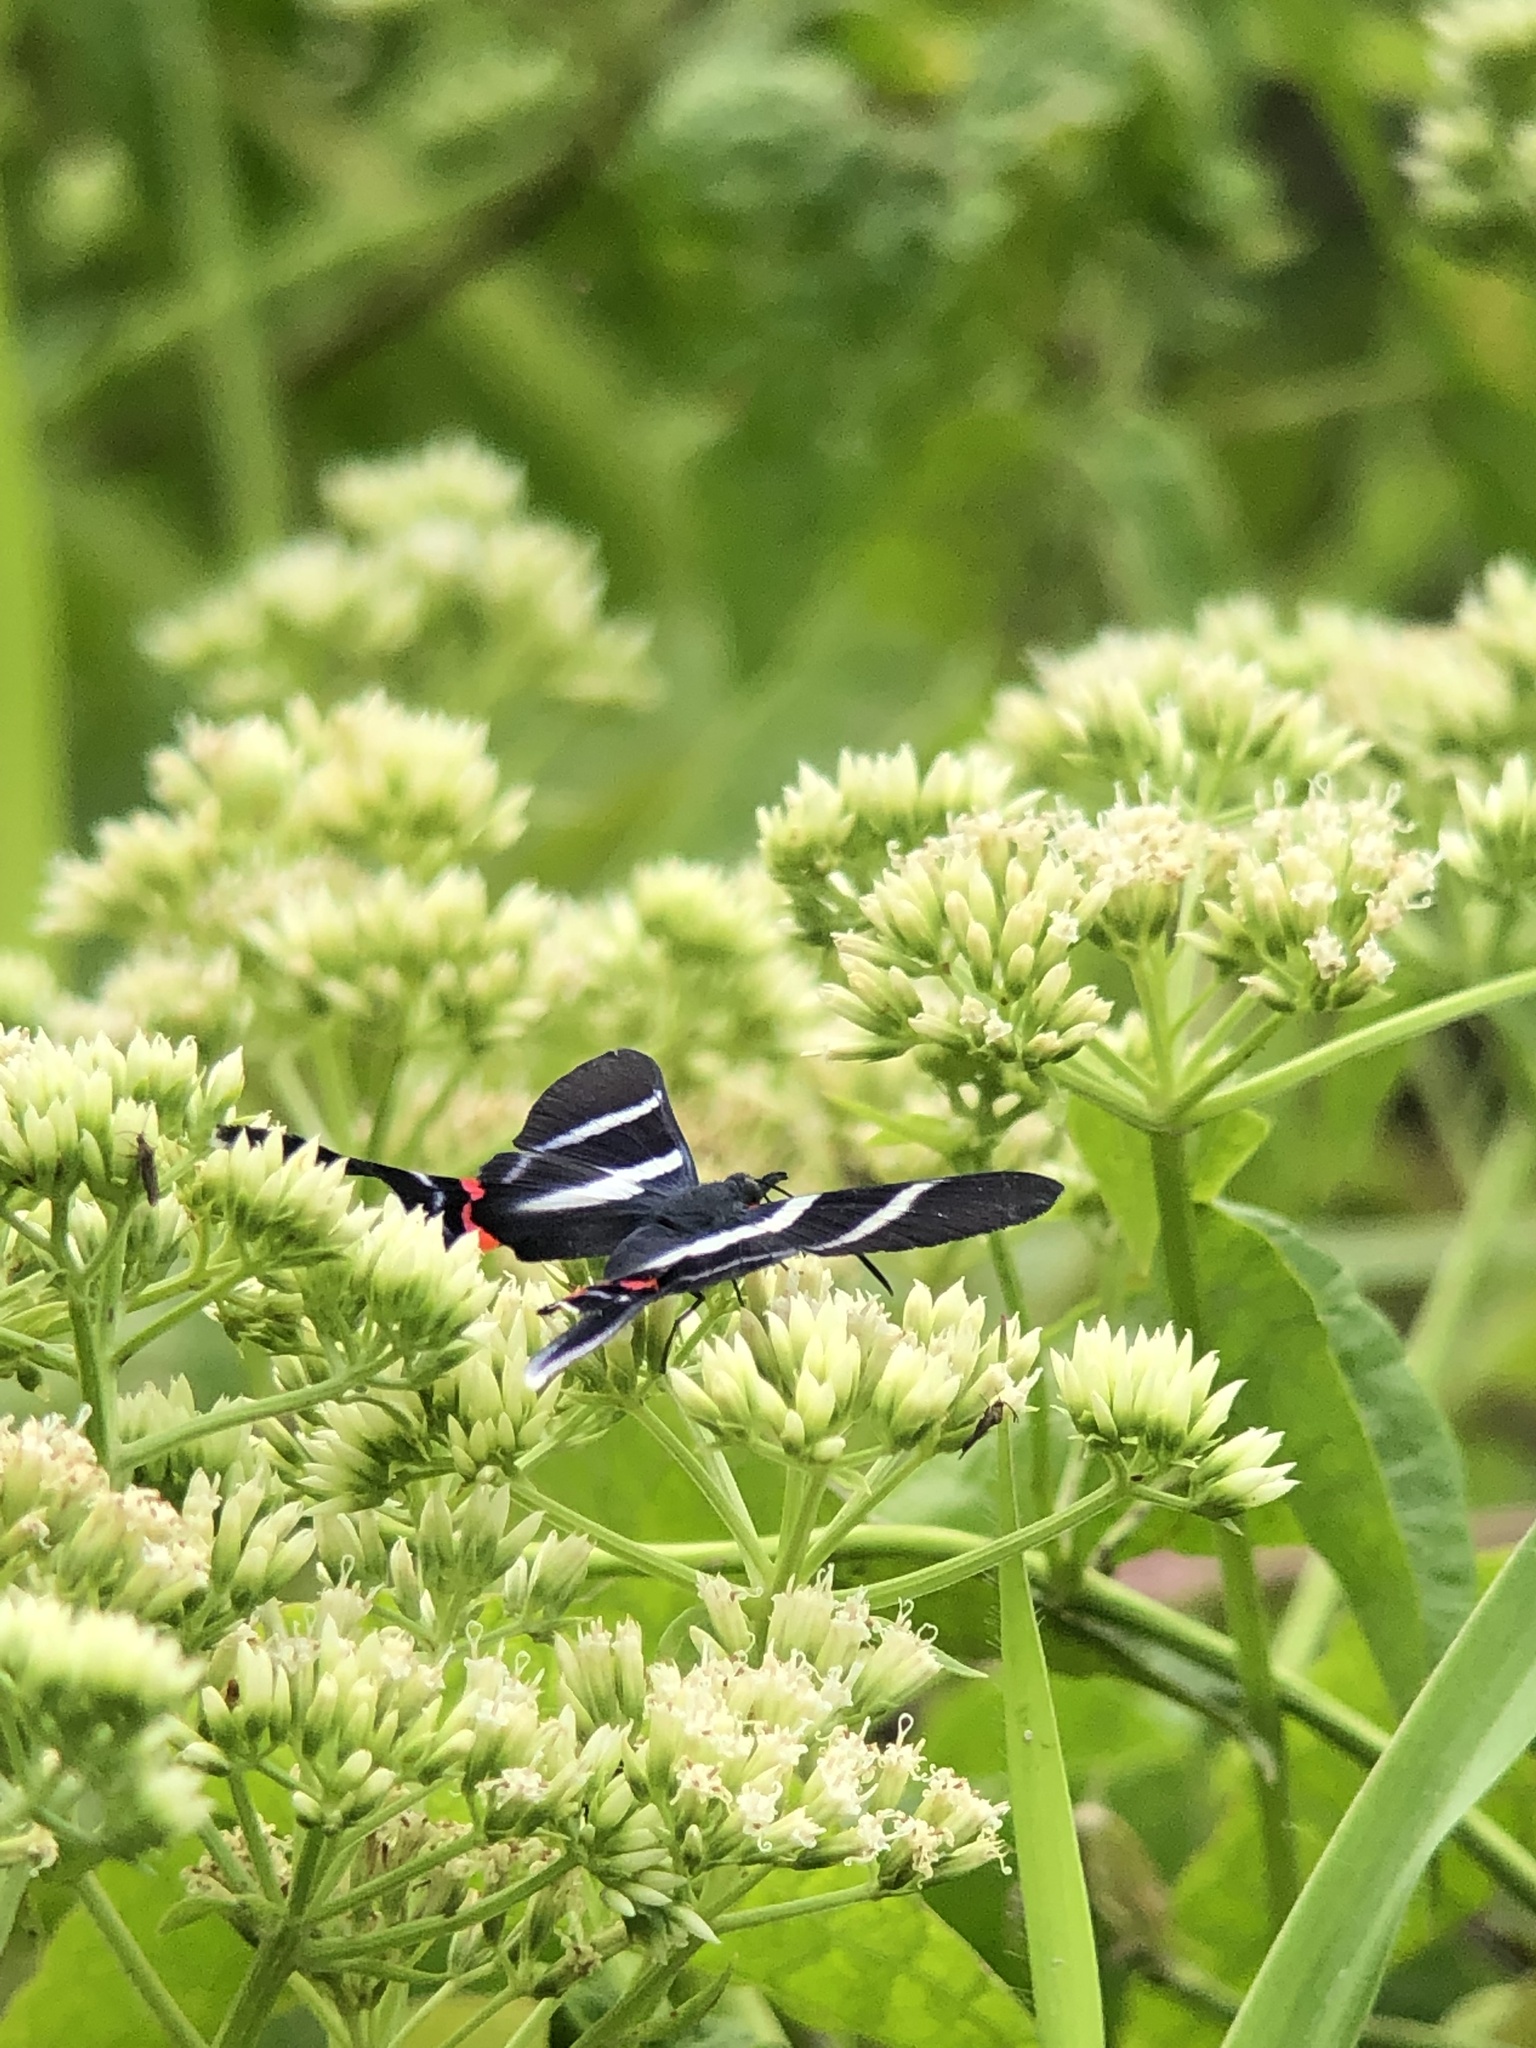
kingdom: Animalia
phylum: Arthropoda
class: Insecta
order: Lepidoptera
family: Riodinidae
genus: Rhetus
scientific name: Rhetus arcius
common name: Long-tailed metalmark
